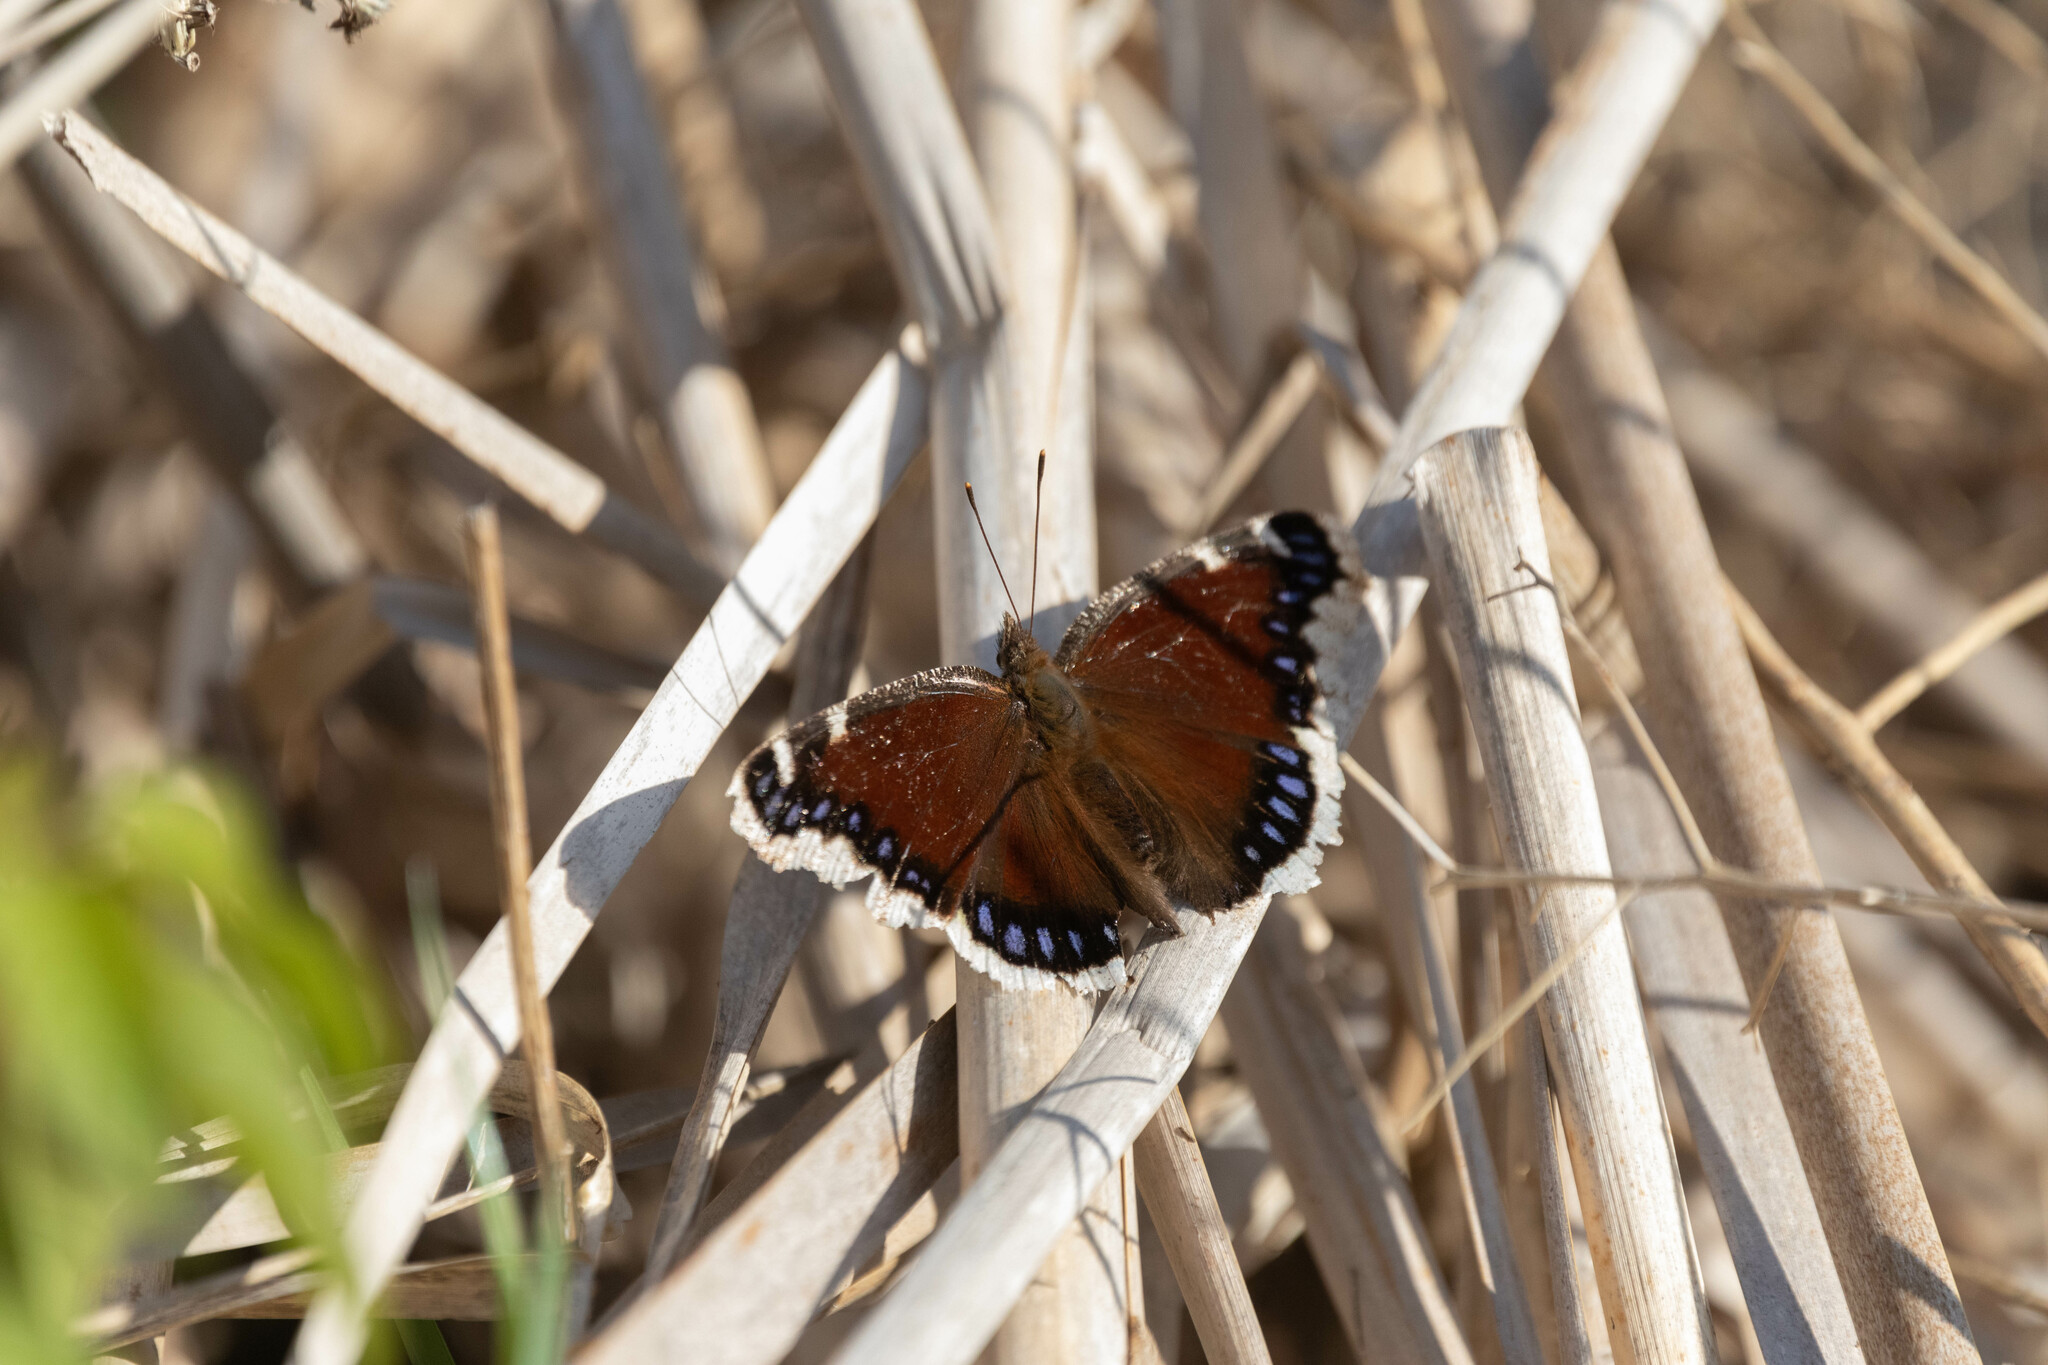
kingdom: Animalia
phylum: Arthropoda
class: Insecta
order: Lepidoptera
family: Nymphalidae
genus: Nymphalis
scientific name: Nymphalis antiopa
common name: Camberwell beauty
